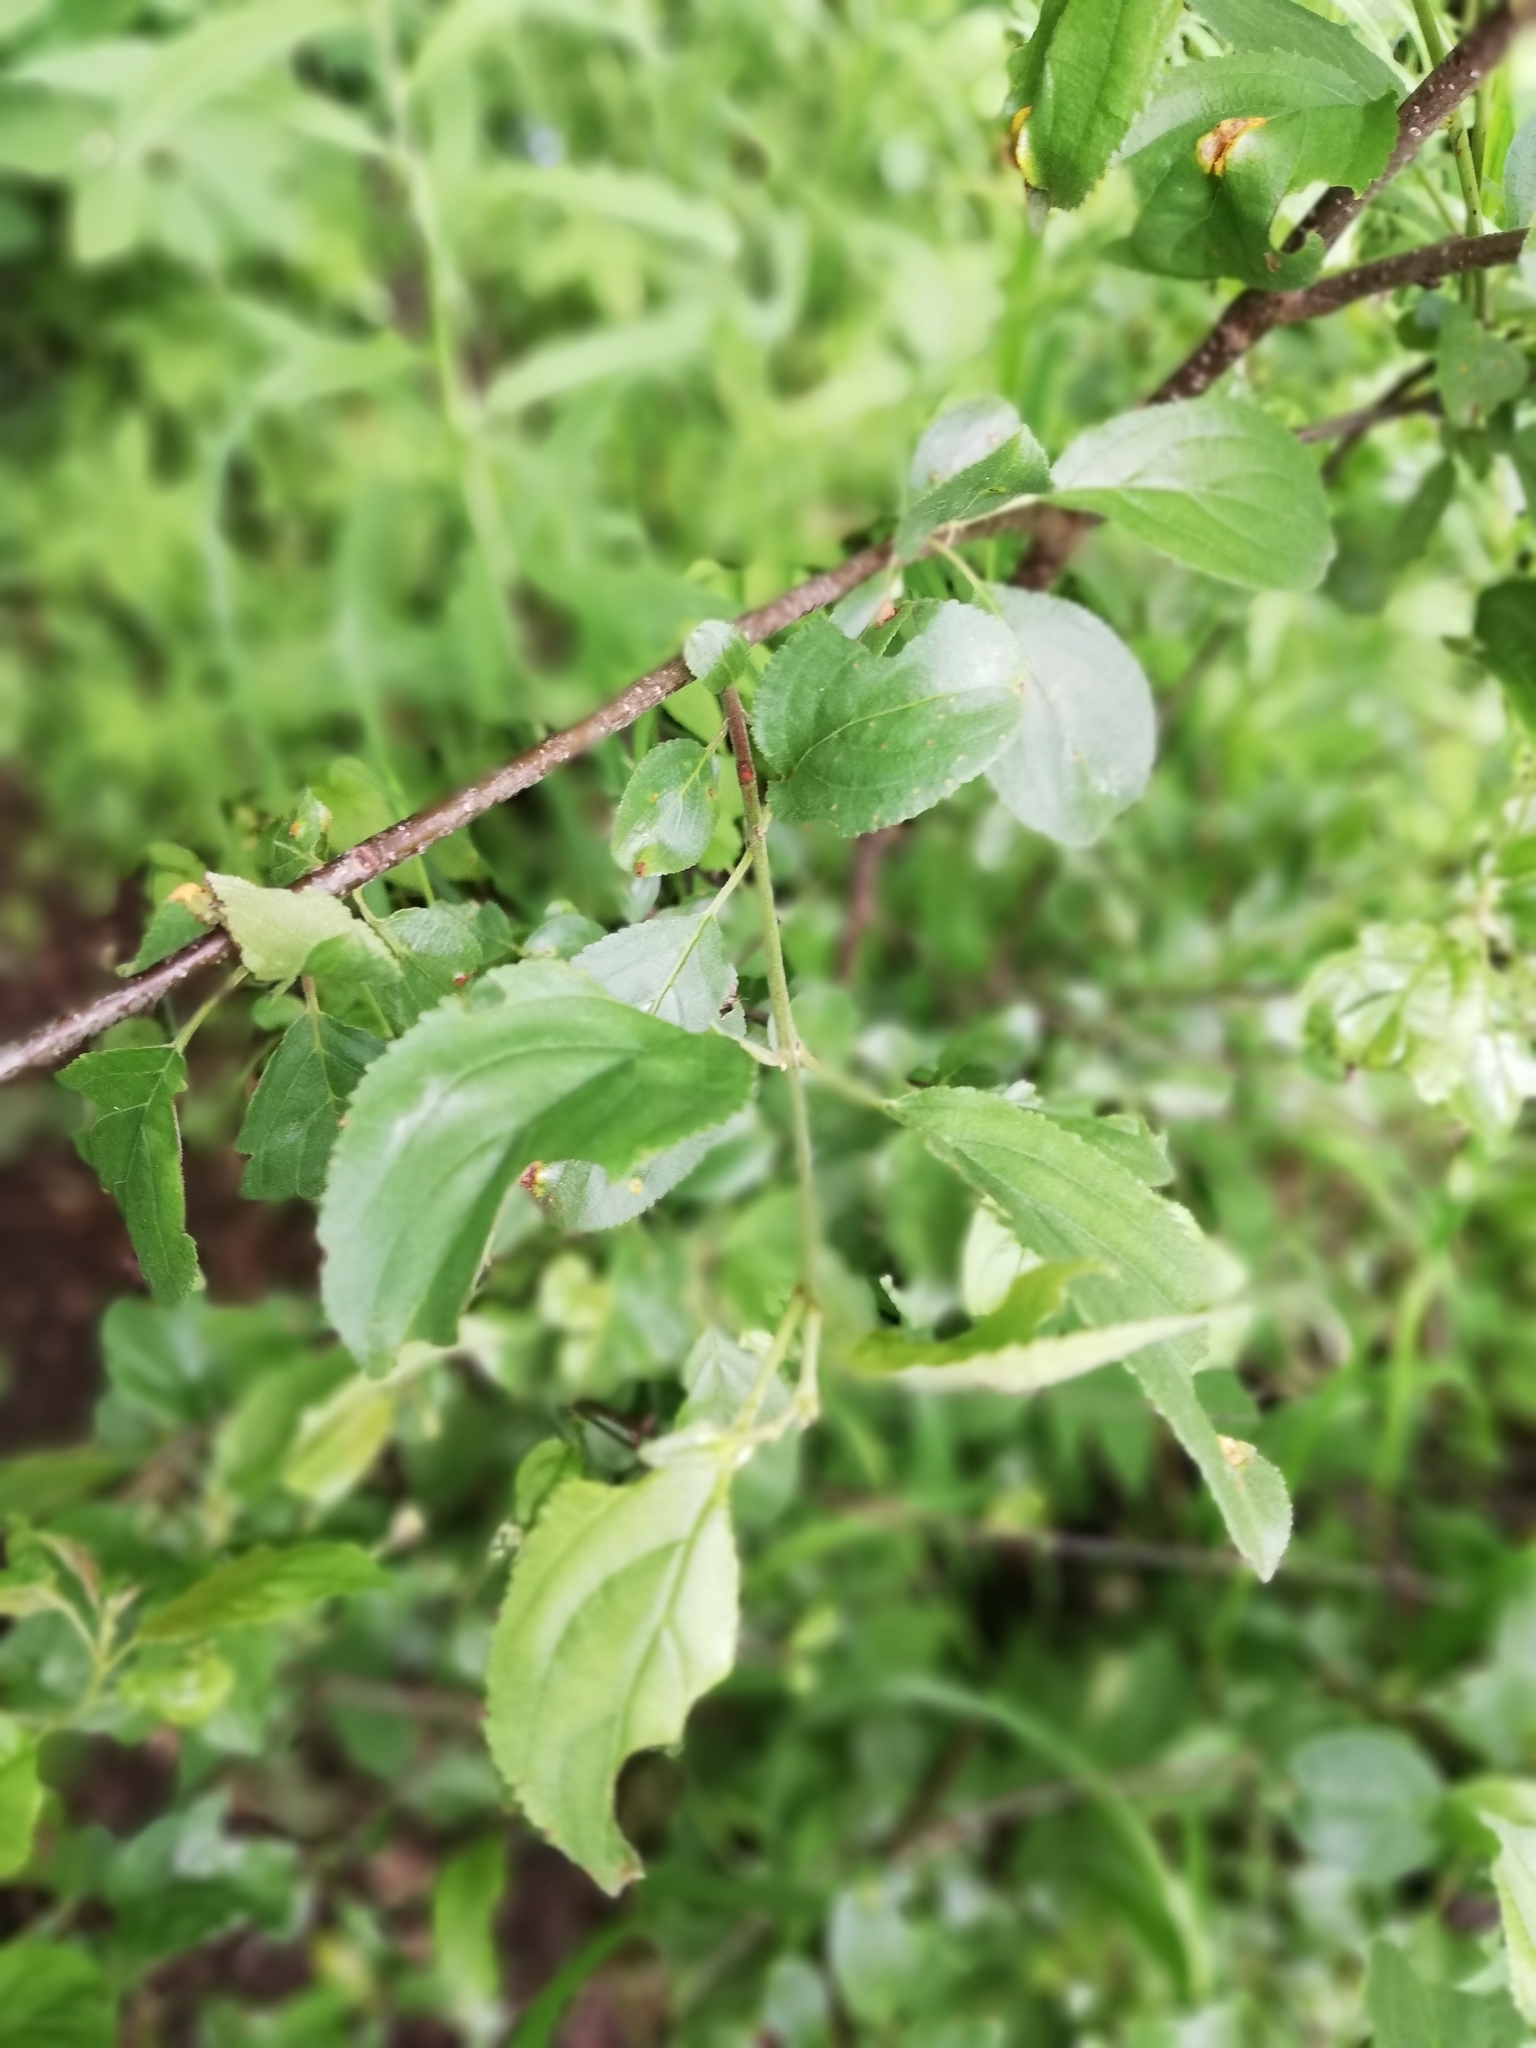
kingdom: Plantae
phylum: Tracheophyta
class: Magnoliopsida
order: Rosales
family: Rhamnaceae
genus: Rhamnus
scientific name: Rhamnus cathartica
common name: Common buckthorn
